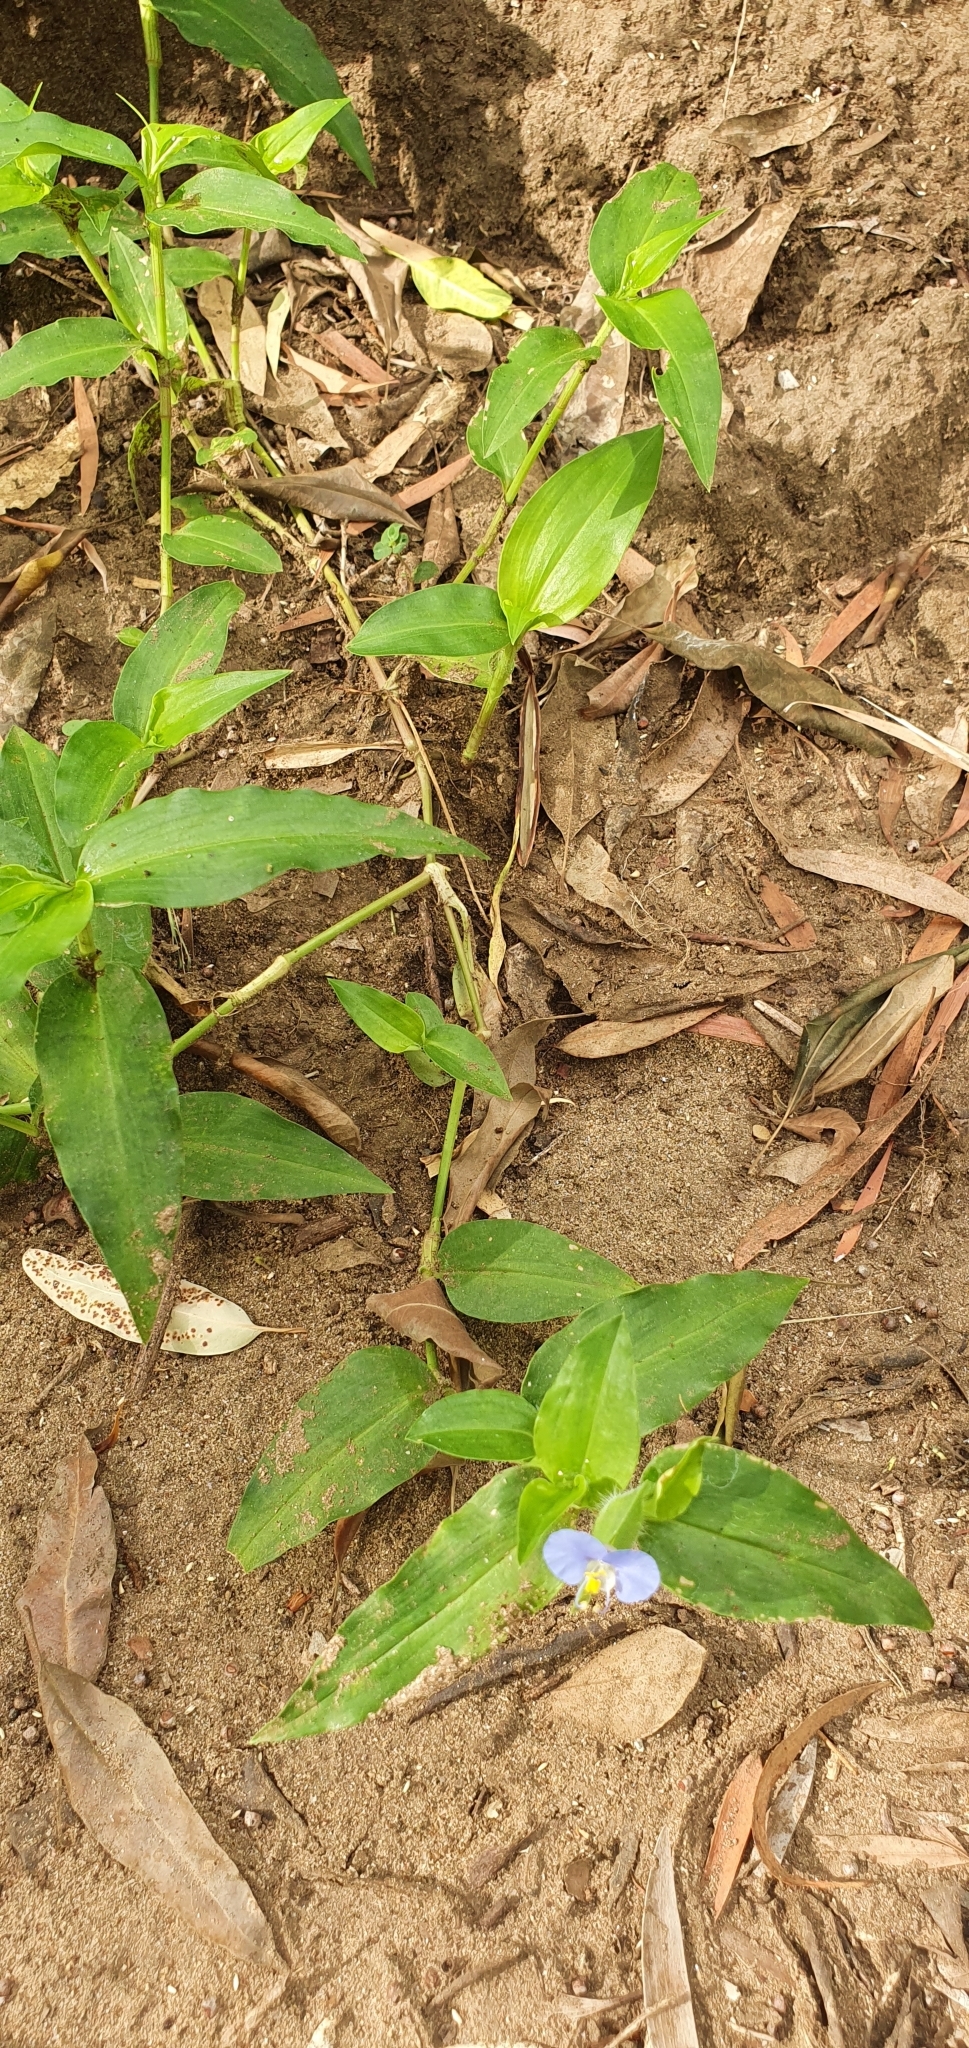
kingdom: Plantae
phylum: Tracheophyta
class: Liliopsida
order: Commelinales
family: Commelinaceae
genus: Commelina
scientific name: Commelina ensifolia
